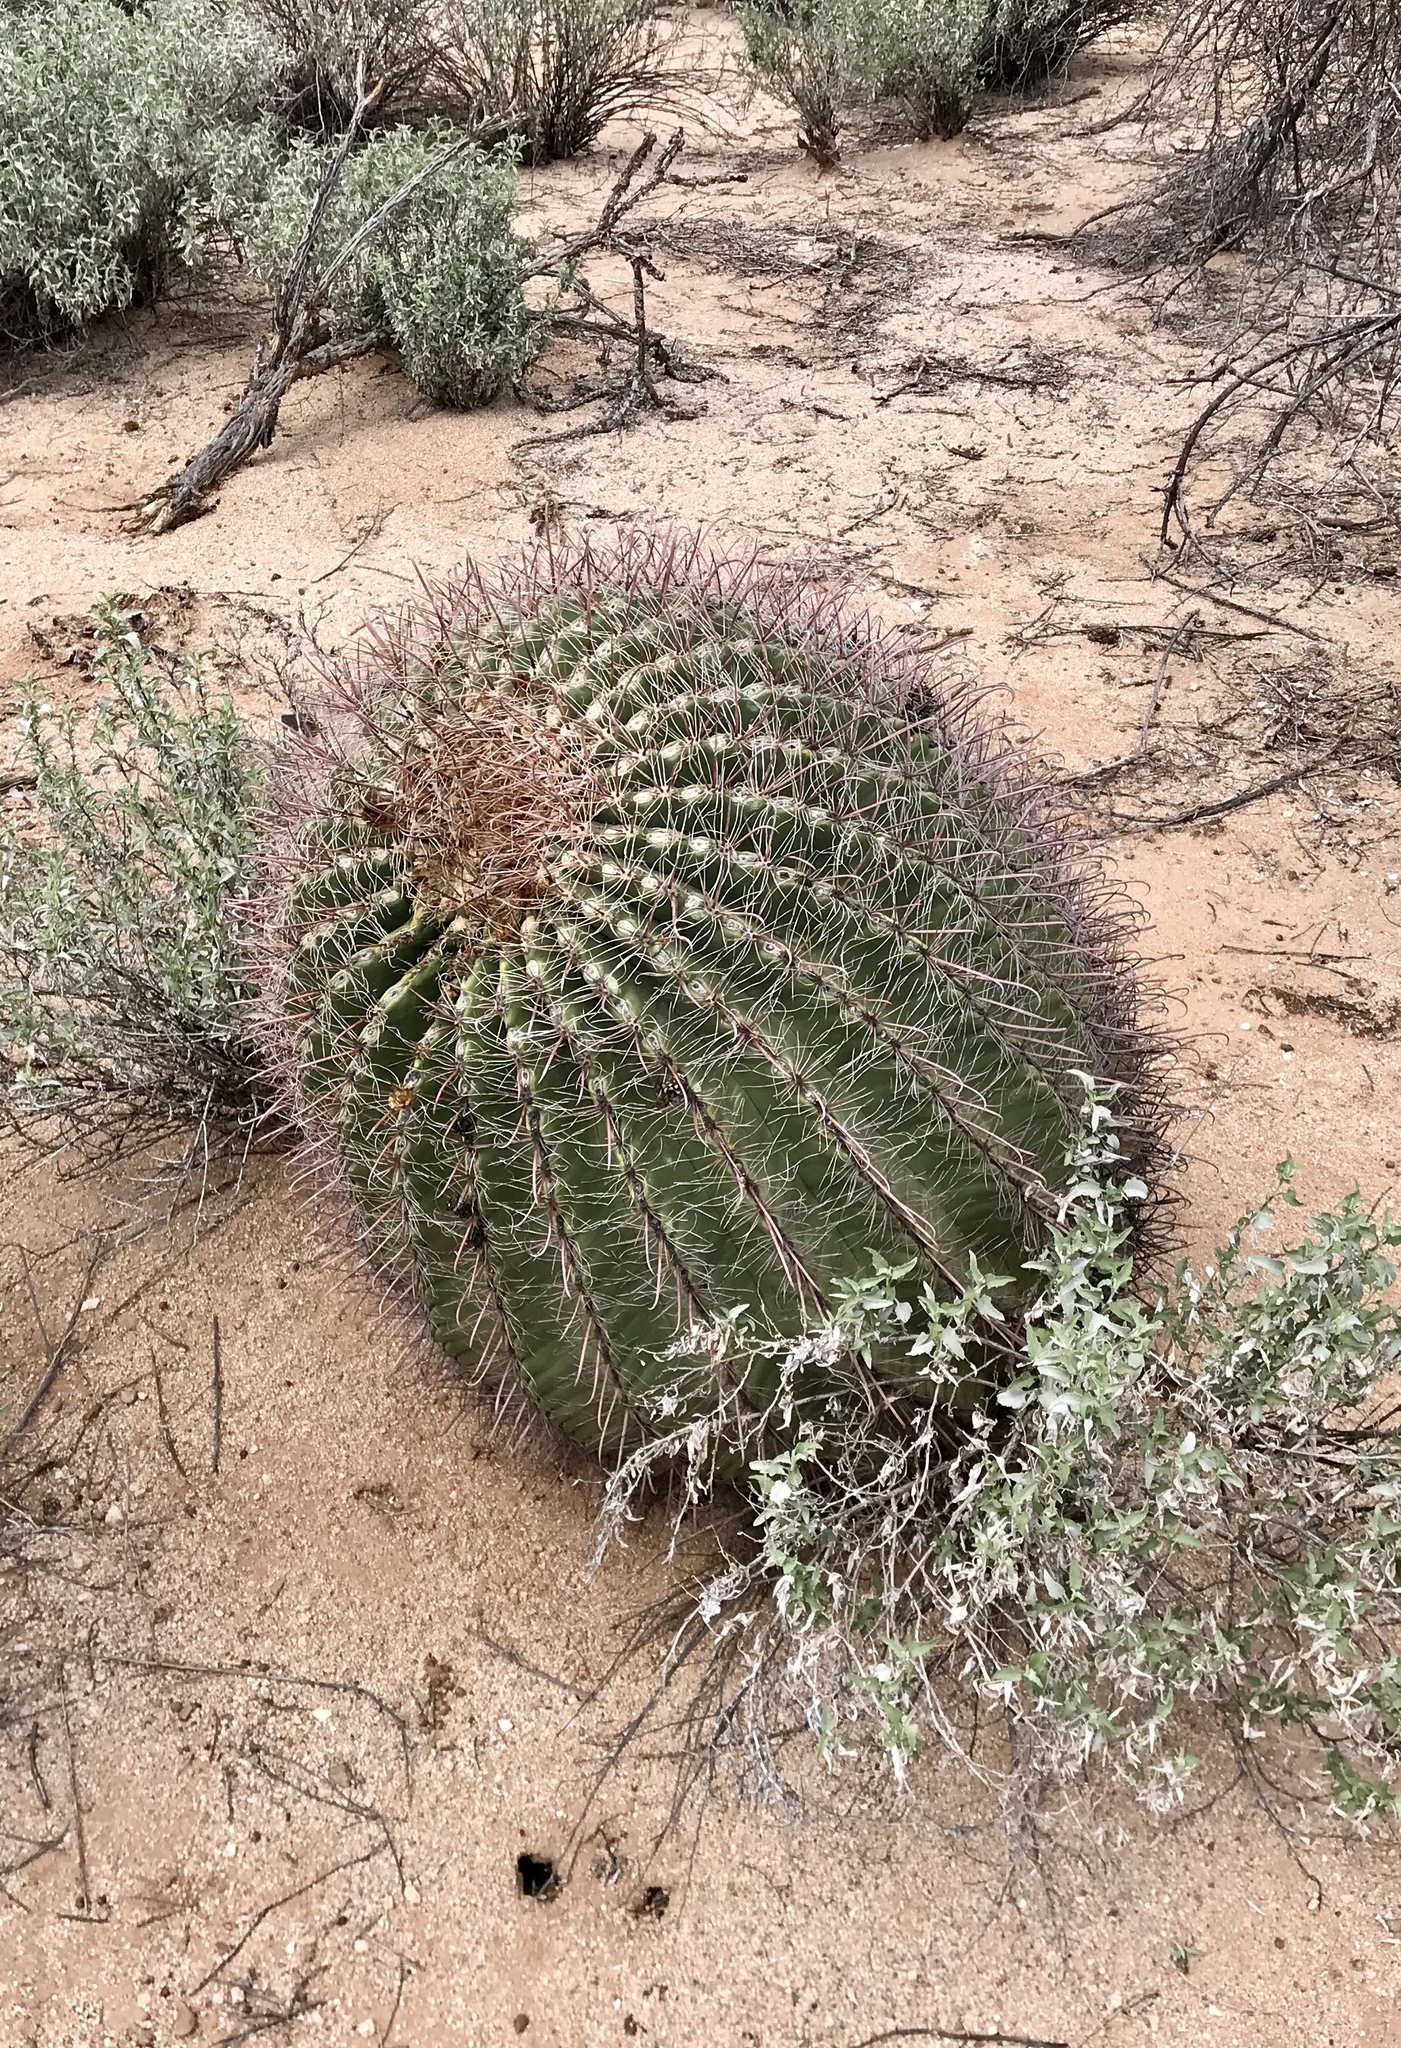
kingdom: Plantae
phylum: Tracheophyta
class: Magnoliopsida
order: Caryophyllales
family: Cactaceae
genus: Ferocactus
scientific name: Ferocactus wislizeni
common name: Candy barrel cactus
